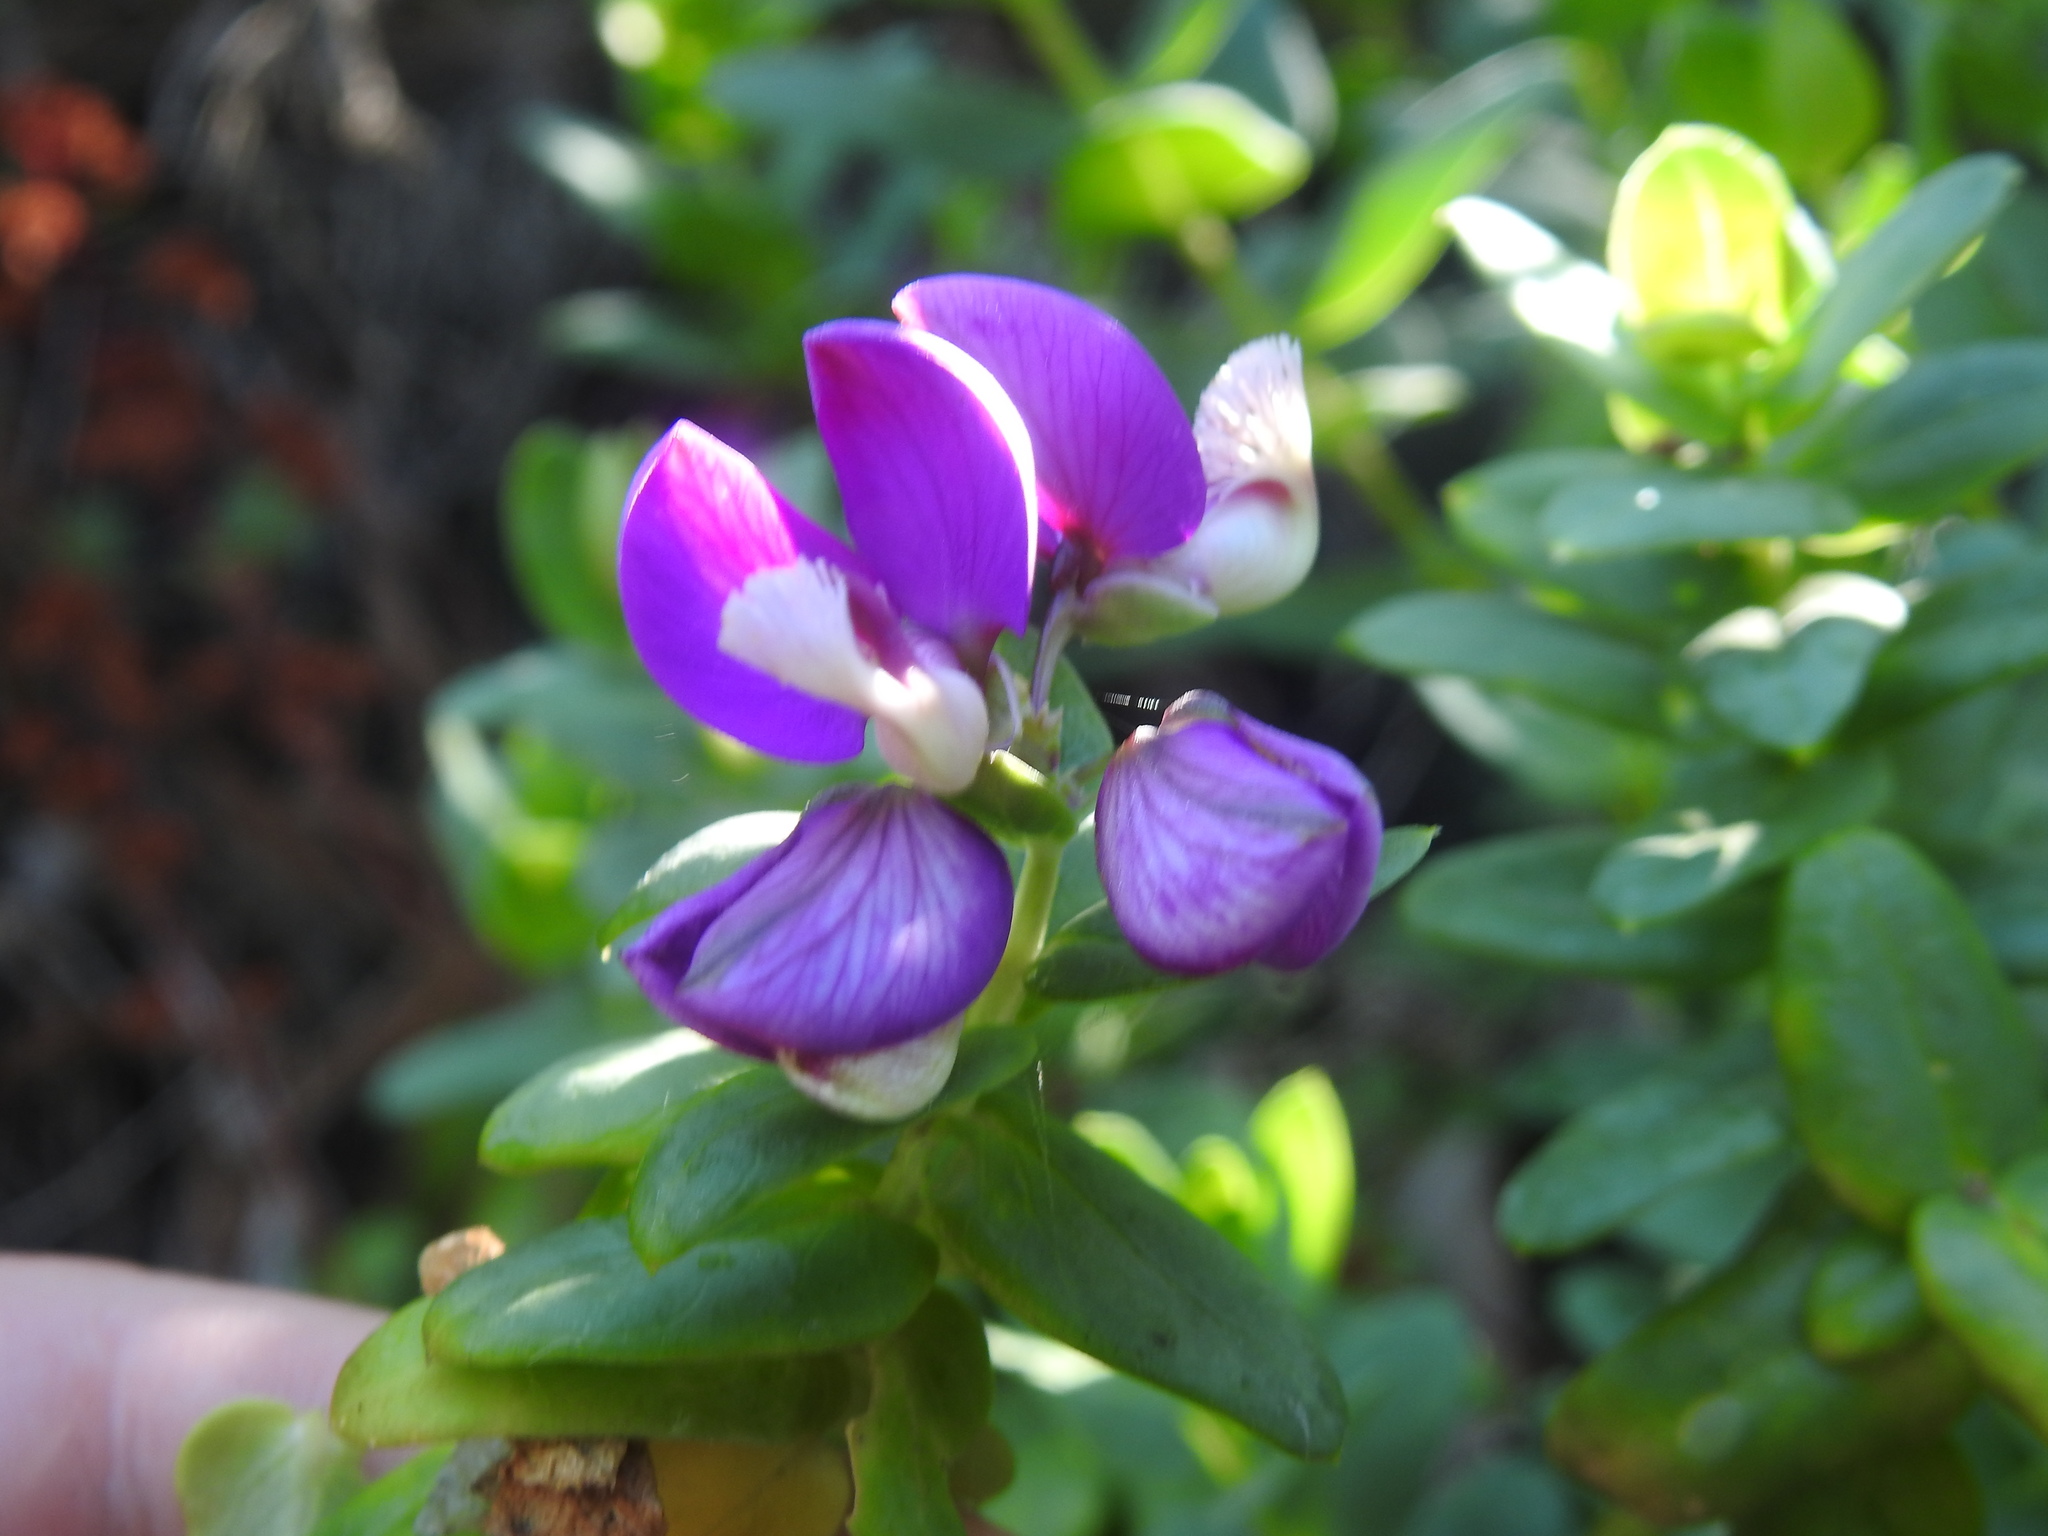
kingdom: Plantae
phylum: Tracheophyta
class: Magnoliopsida
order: Fabales
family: Polygalaceae
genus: Polygala
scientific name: Polygala fruticosa
